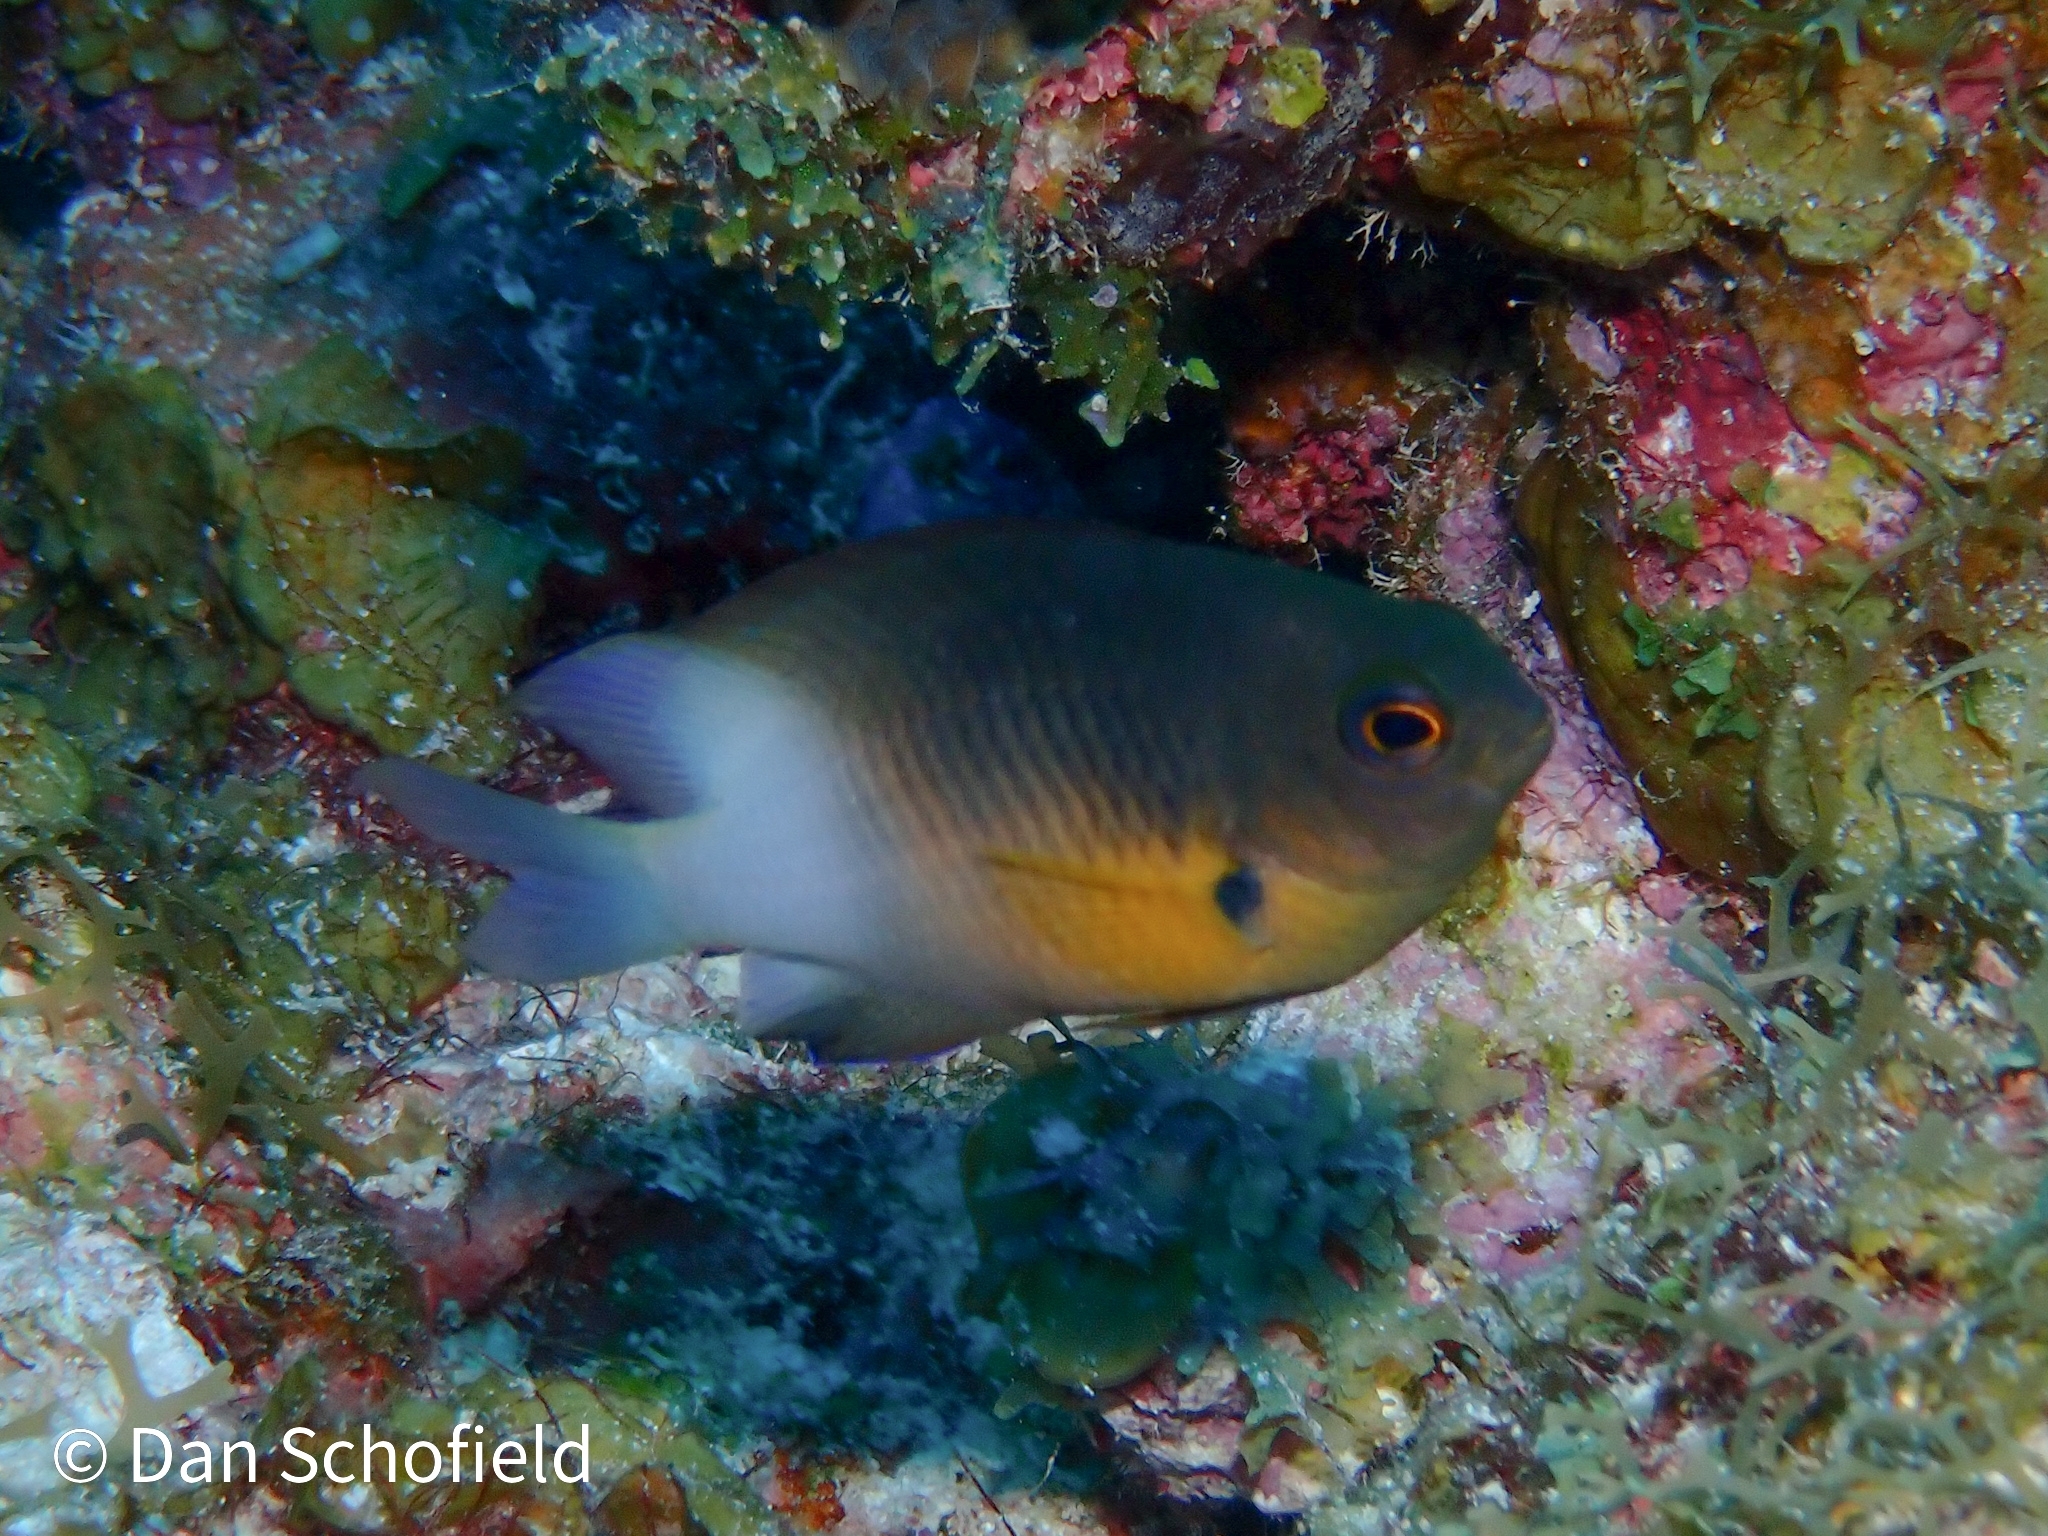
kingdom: Animalia
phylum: Chordata
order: Perciformes
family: Pomacentridae
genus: Stegastes
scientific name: Stegastes partitus
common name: Bicolor damselfish
